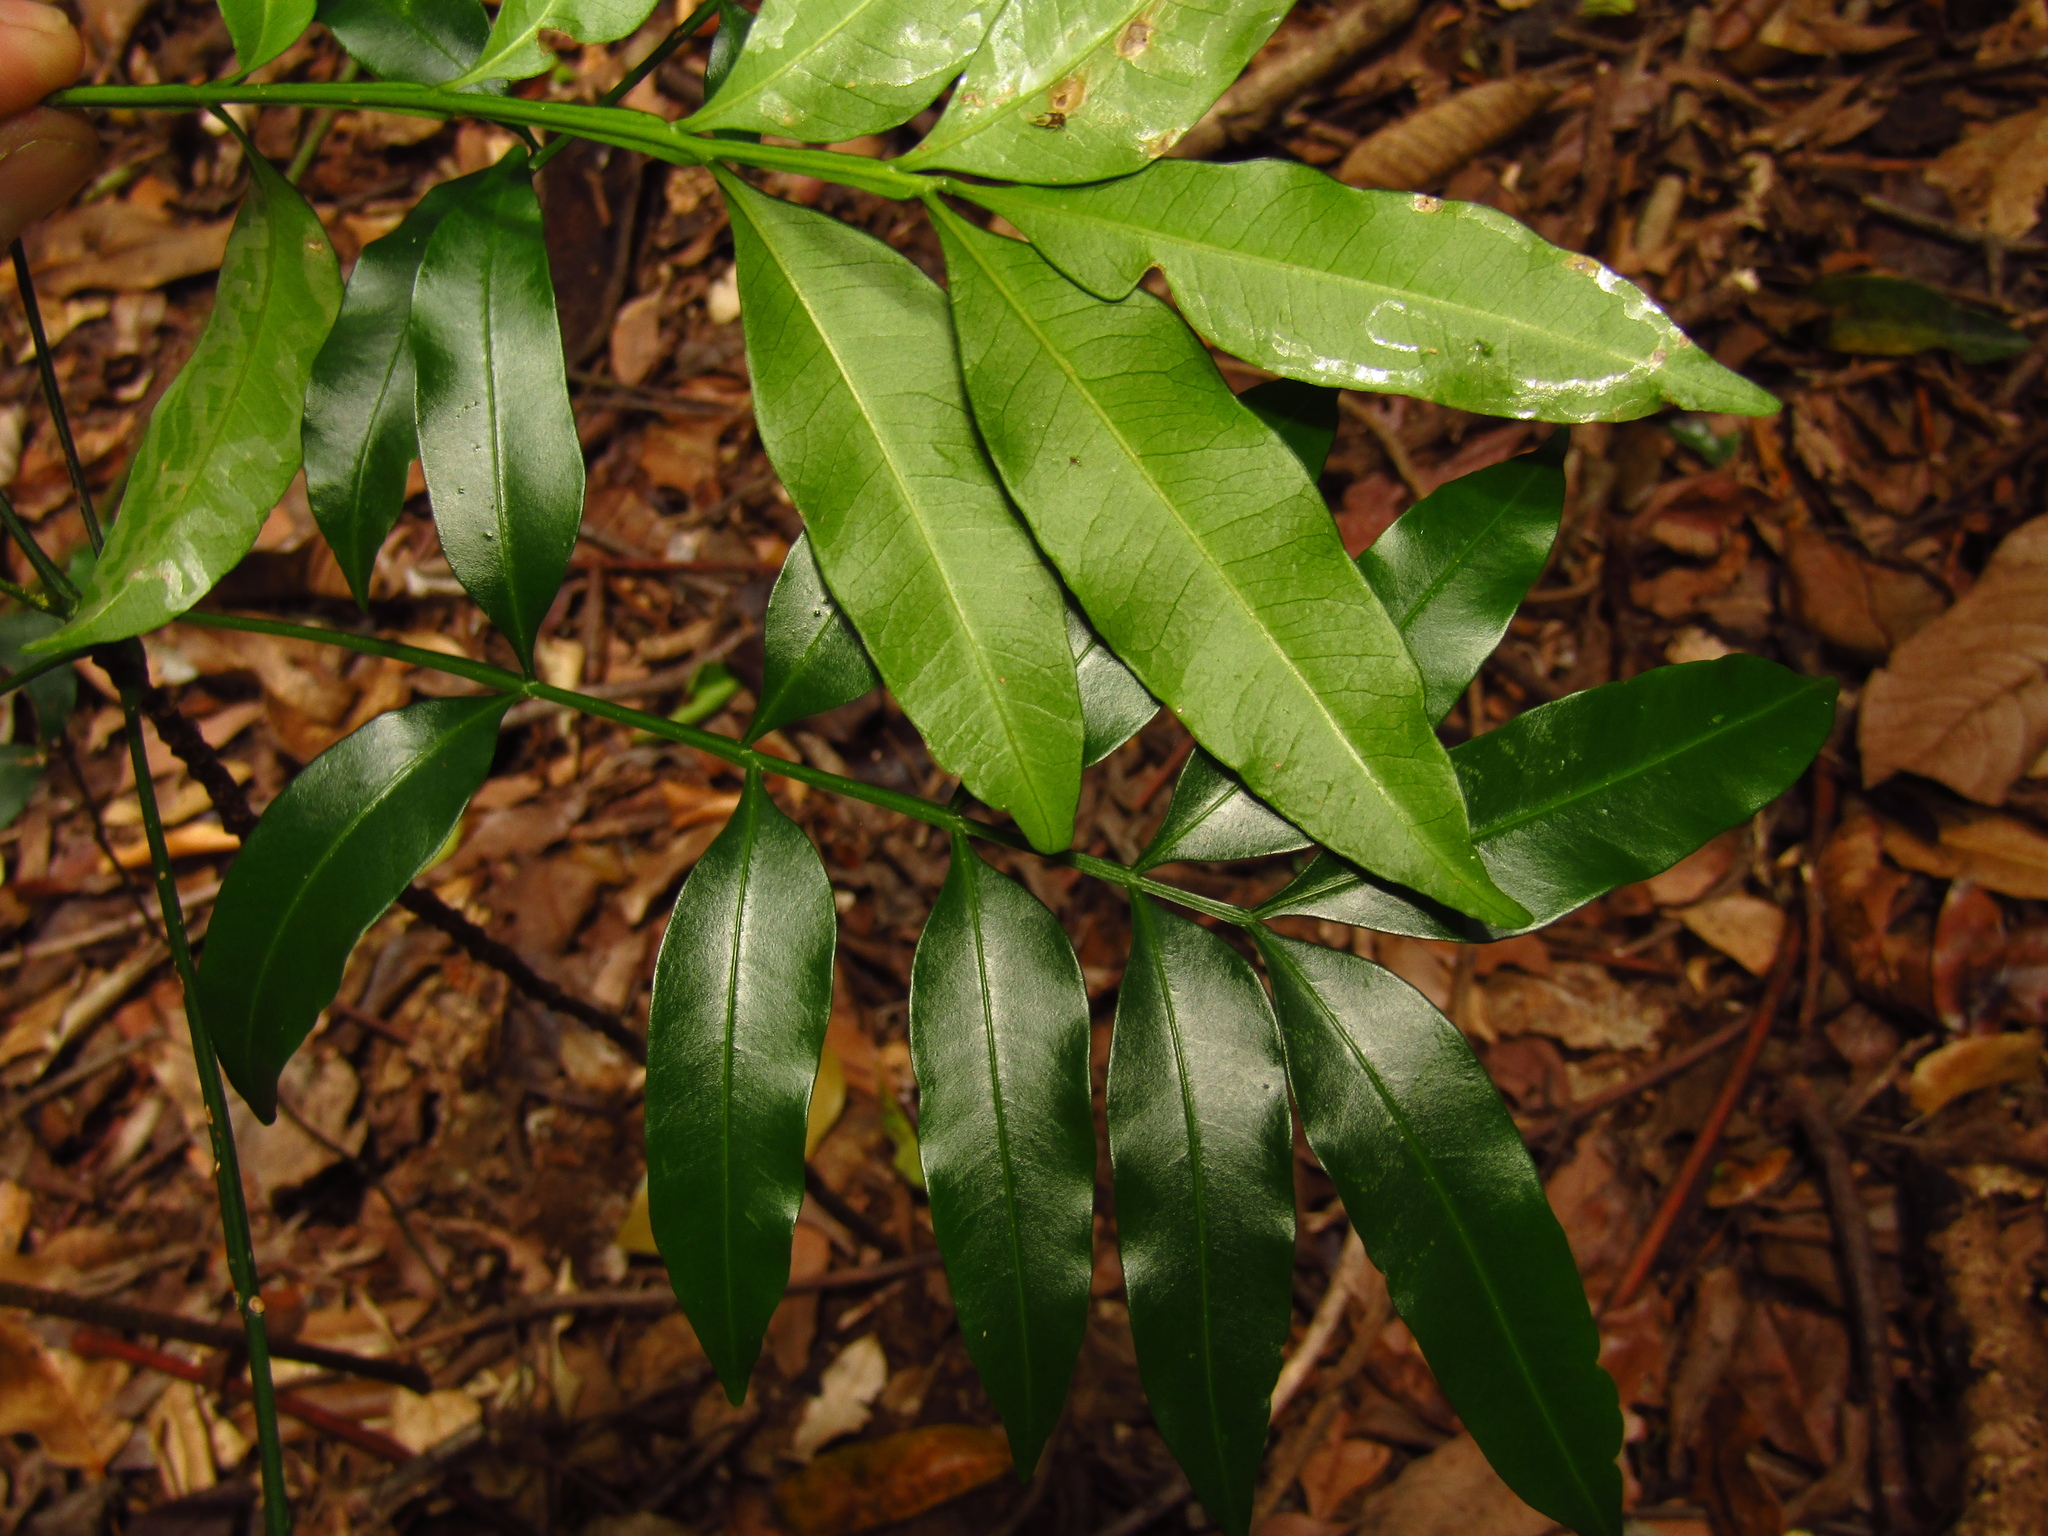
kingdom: Plantae
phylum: Tracheophyta
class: Magnoliopsida
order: Sapindales
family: Meliaceae
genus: Owenia
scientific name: Owenia cepiodora
